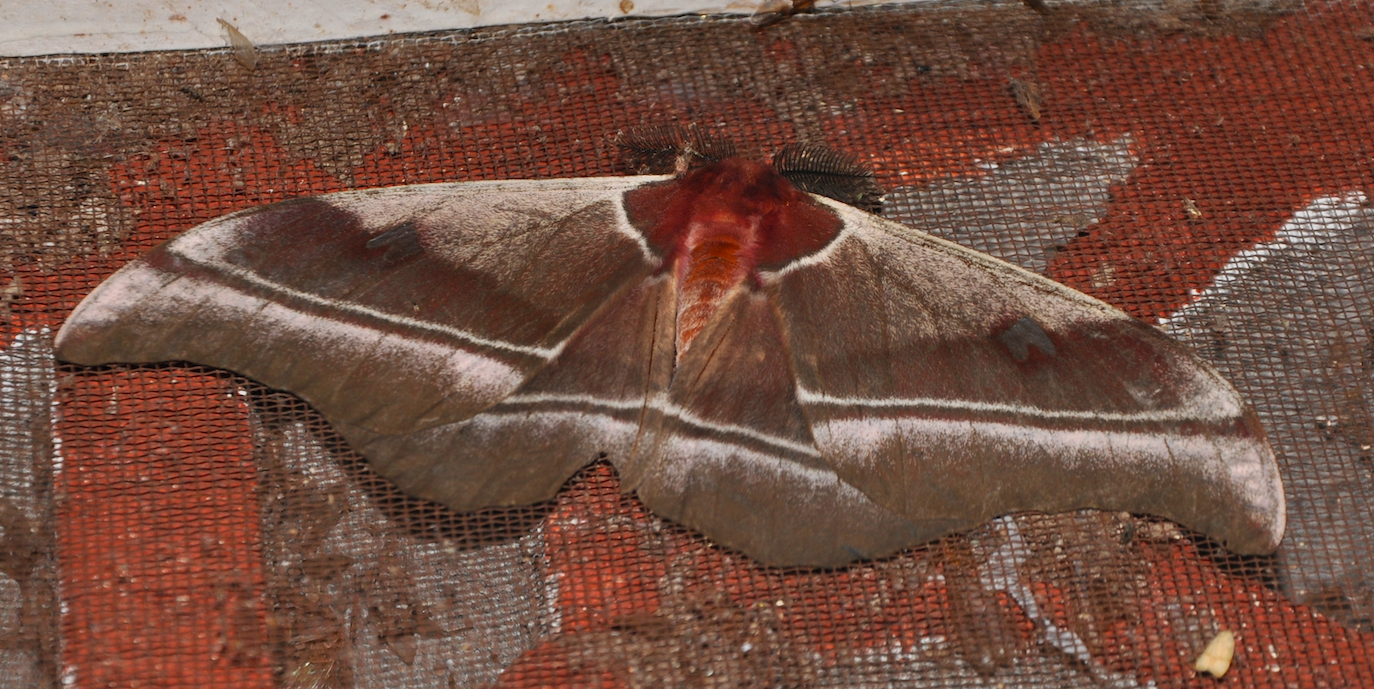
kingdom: Animalia
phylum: Arthropoda
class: Insecta
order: Lepidoptera
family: Saturniidae
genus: Bunaea
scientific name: Bunaea aslauga
